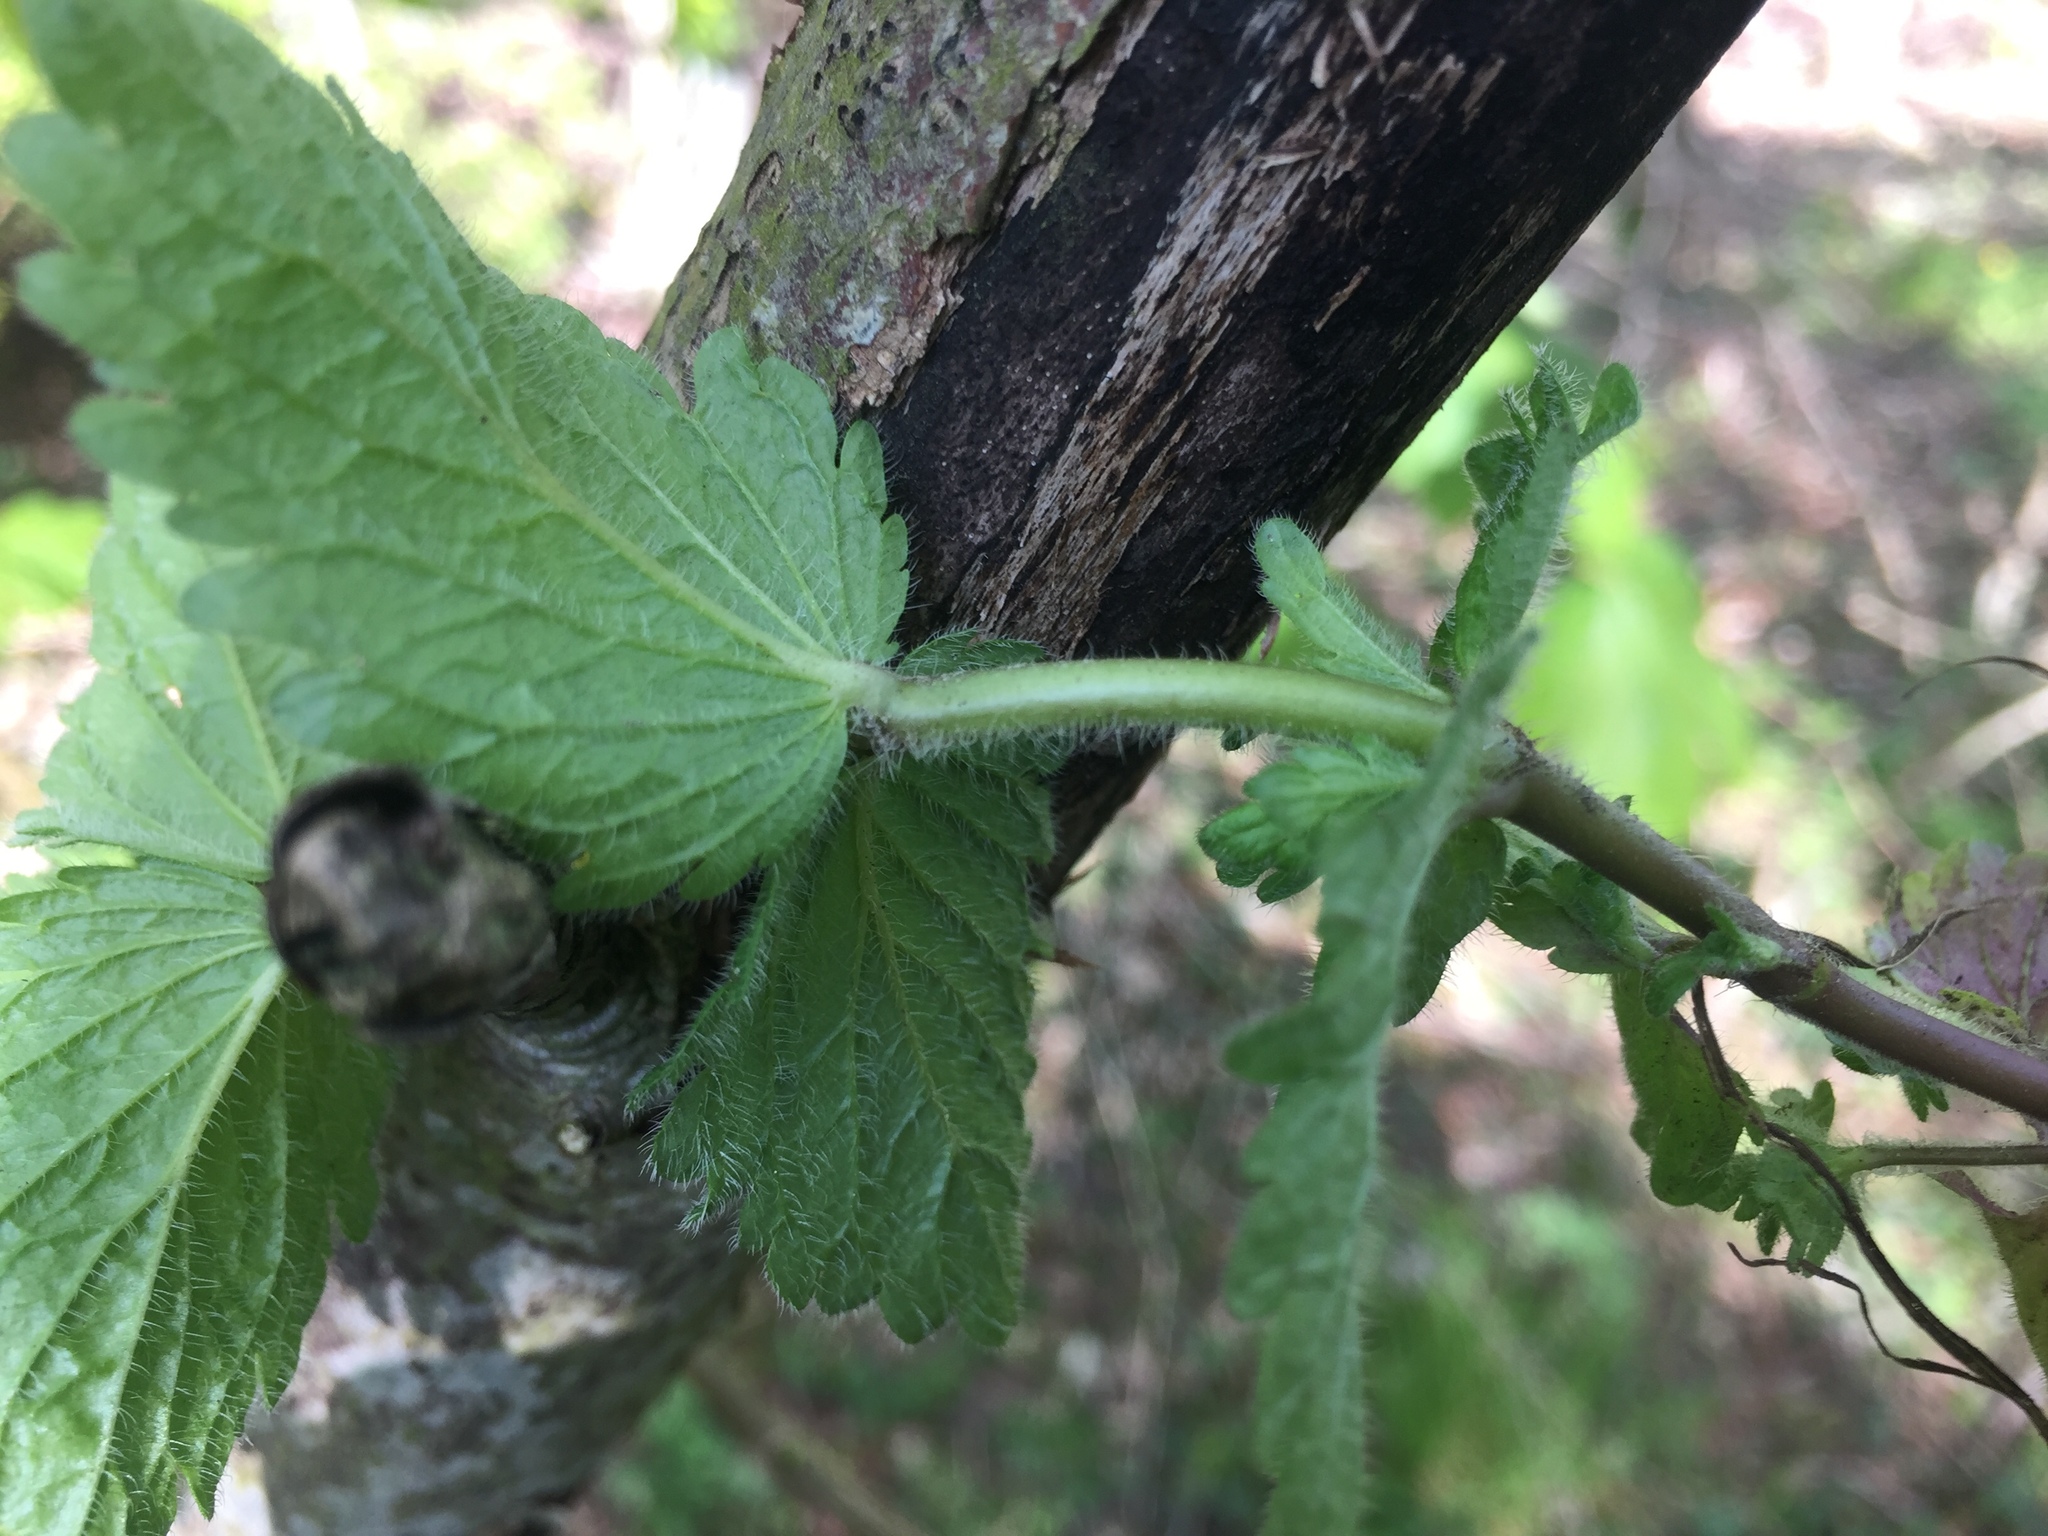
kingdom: Plantae
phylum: Tracheophyta
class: Magnoliopsida
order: Lamiales
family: Plantaginaceae
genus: Veronica
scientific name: Veronica chamaedrys
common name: Germander speedwell
